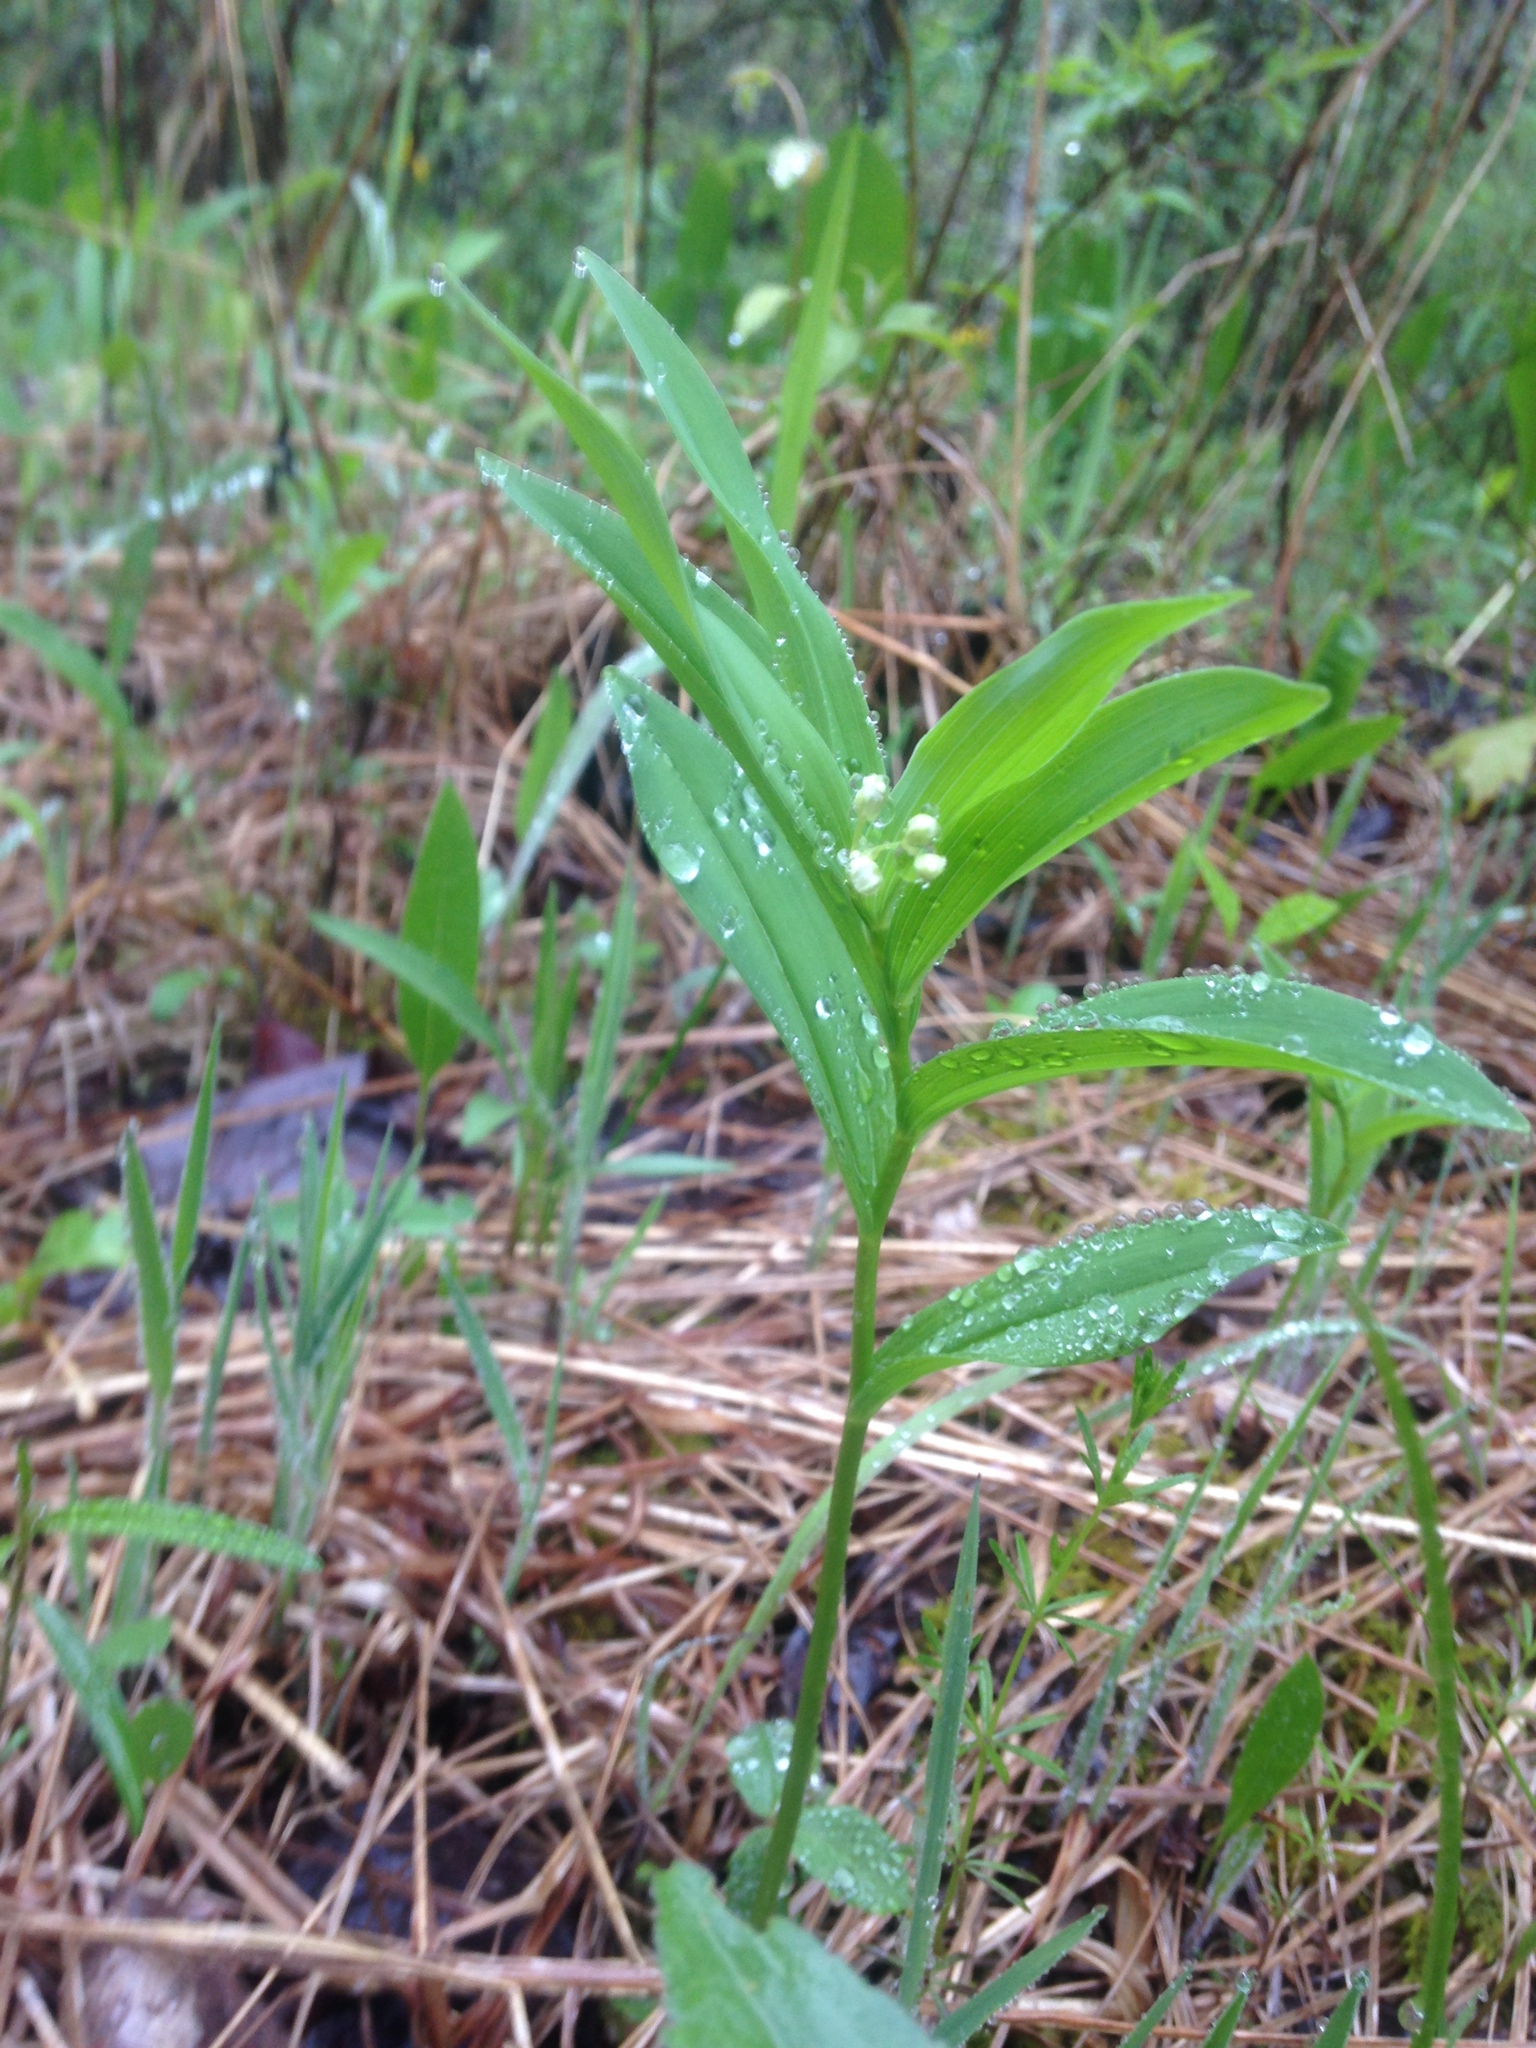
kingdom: Plantae
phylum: Tracheophyta
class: Liliopsida
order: Asparagales
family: Asparagaceae
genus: Maianthemum
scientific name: Maianthemum stellatum
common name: Little false solomon's seal
